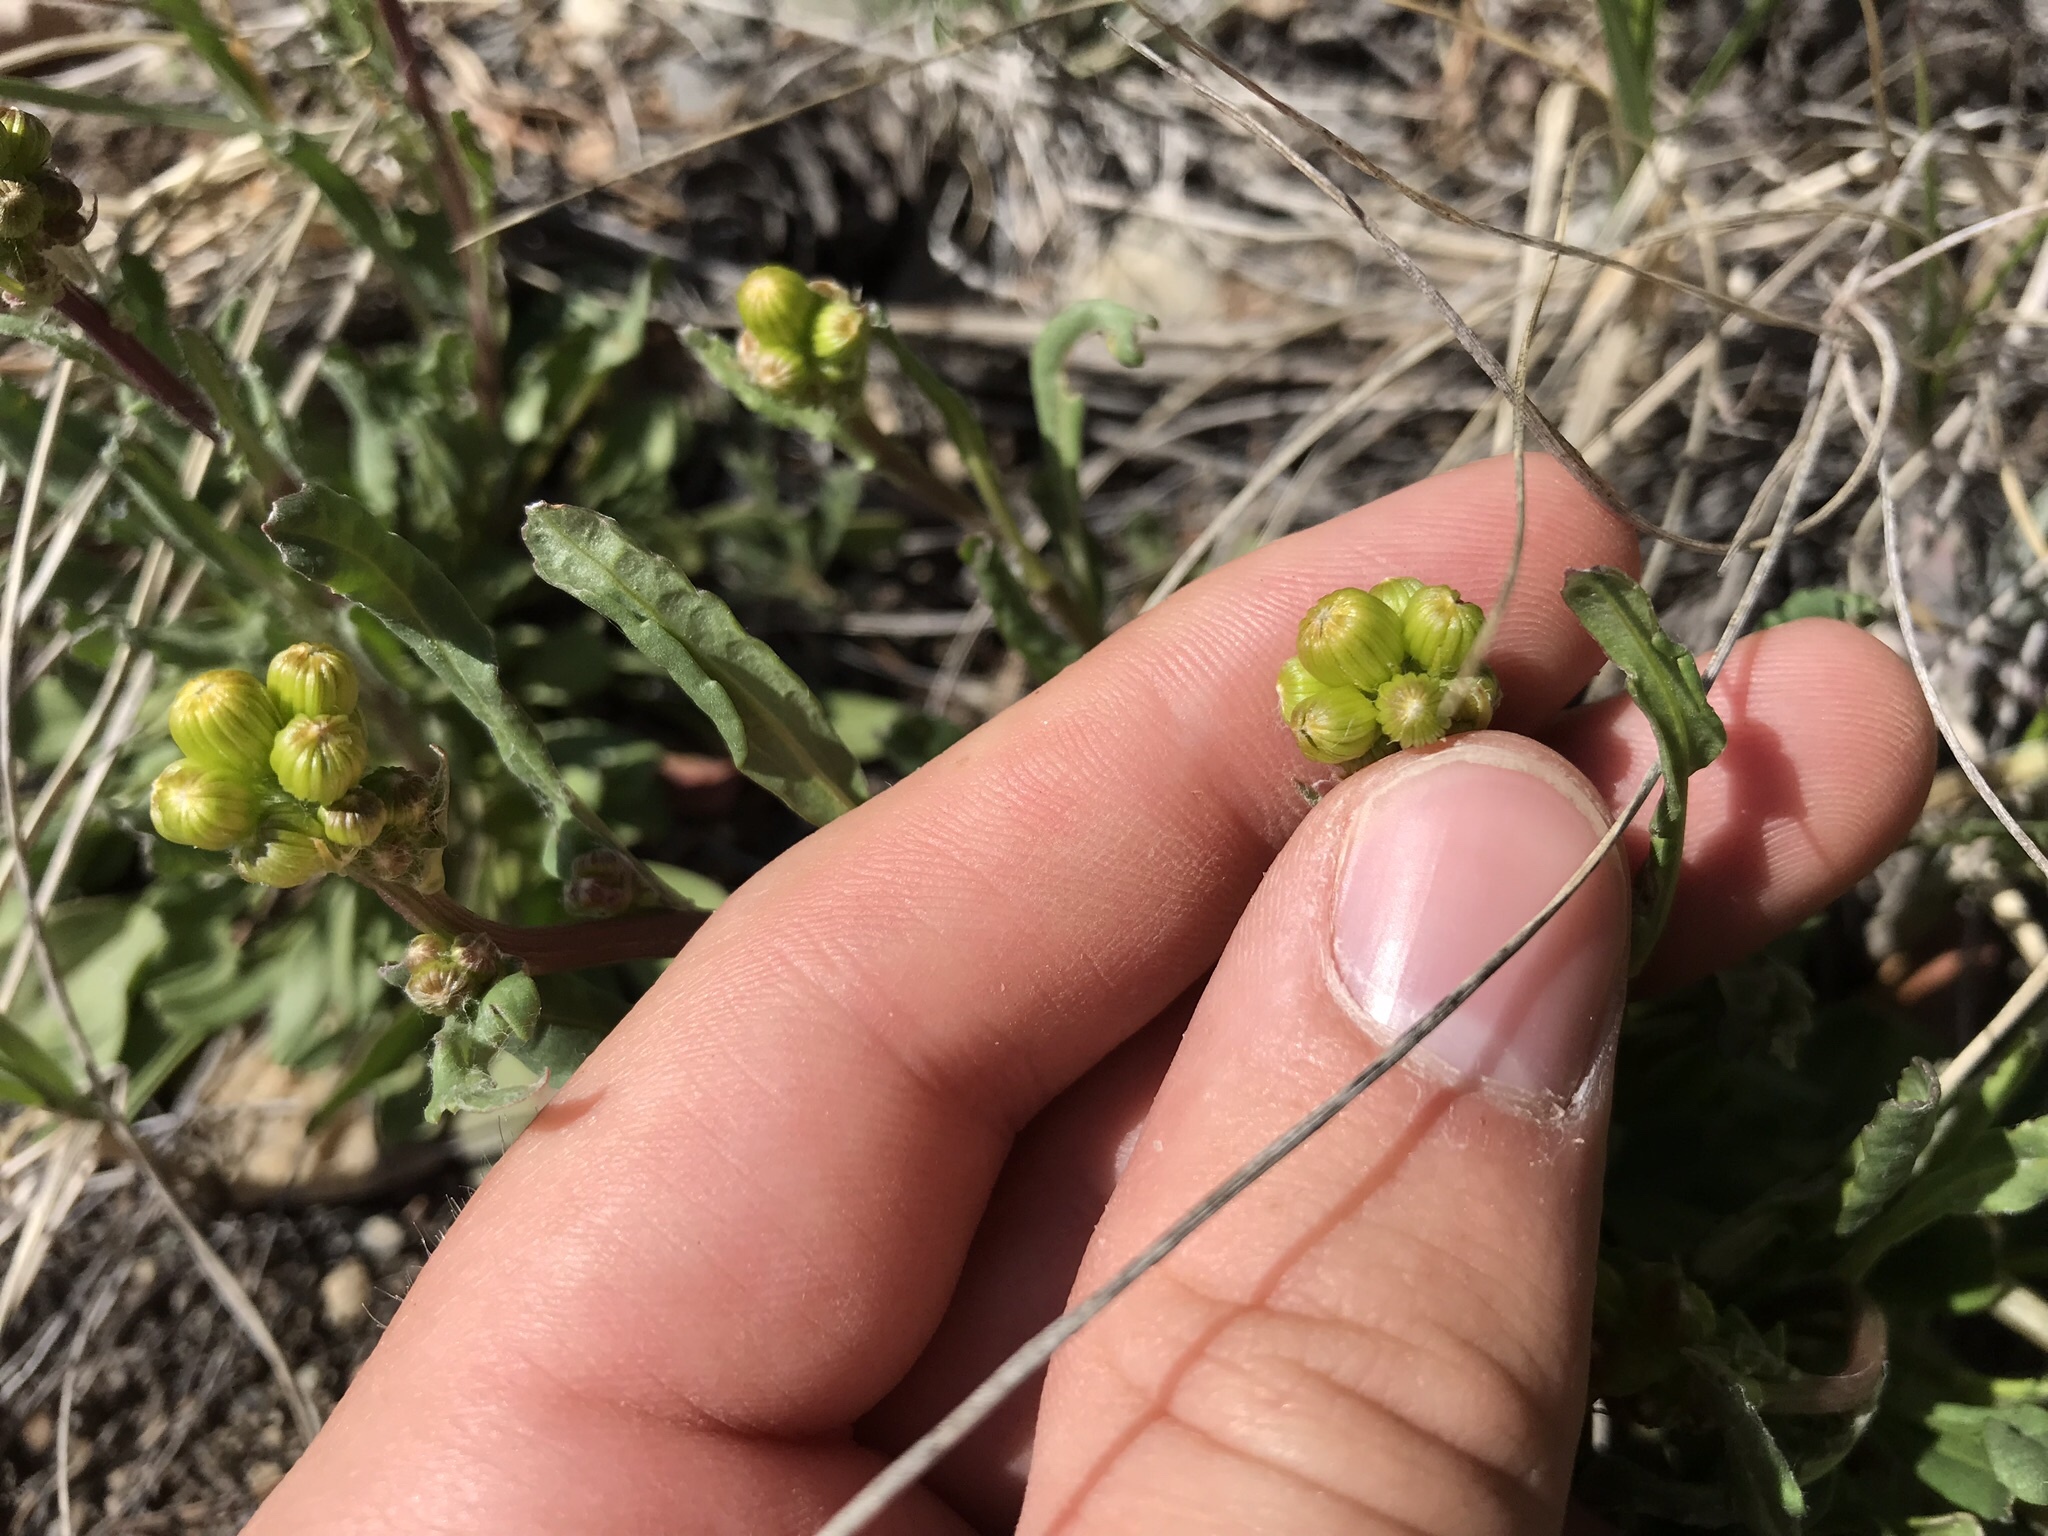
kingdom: Plantae
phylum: Tracheophyta
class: Magnoliopsida
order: Asterales
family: Asteraceae
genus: Packera
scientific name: Packera streptanthifolia
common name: Rocky mountain butterweed
